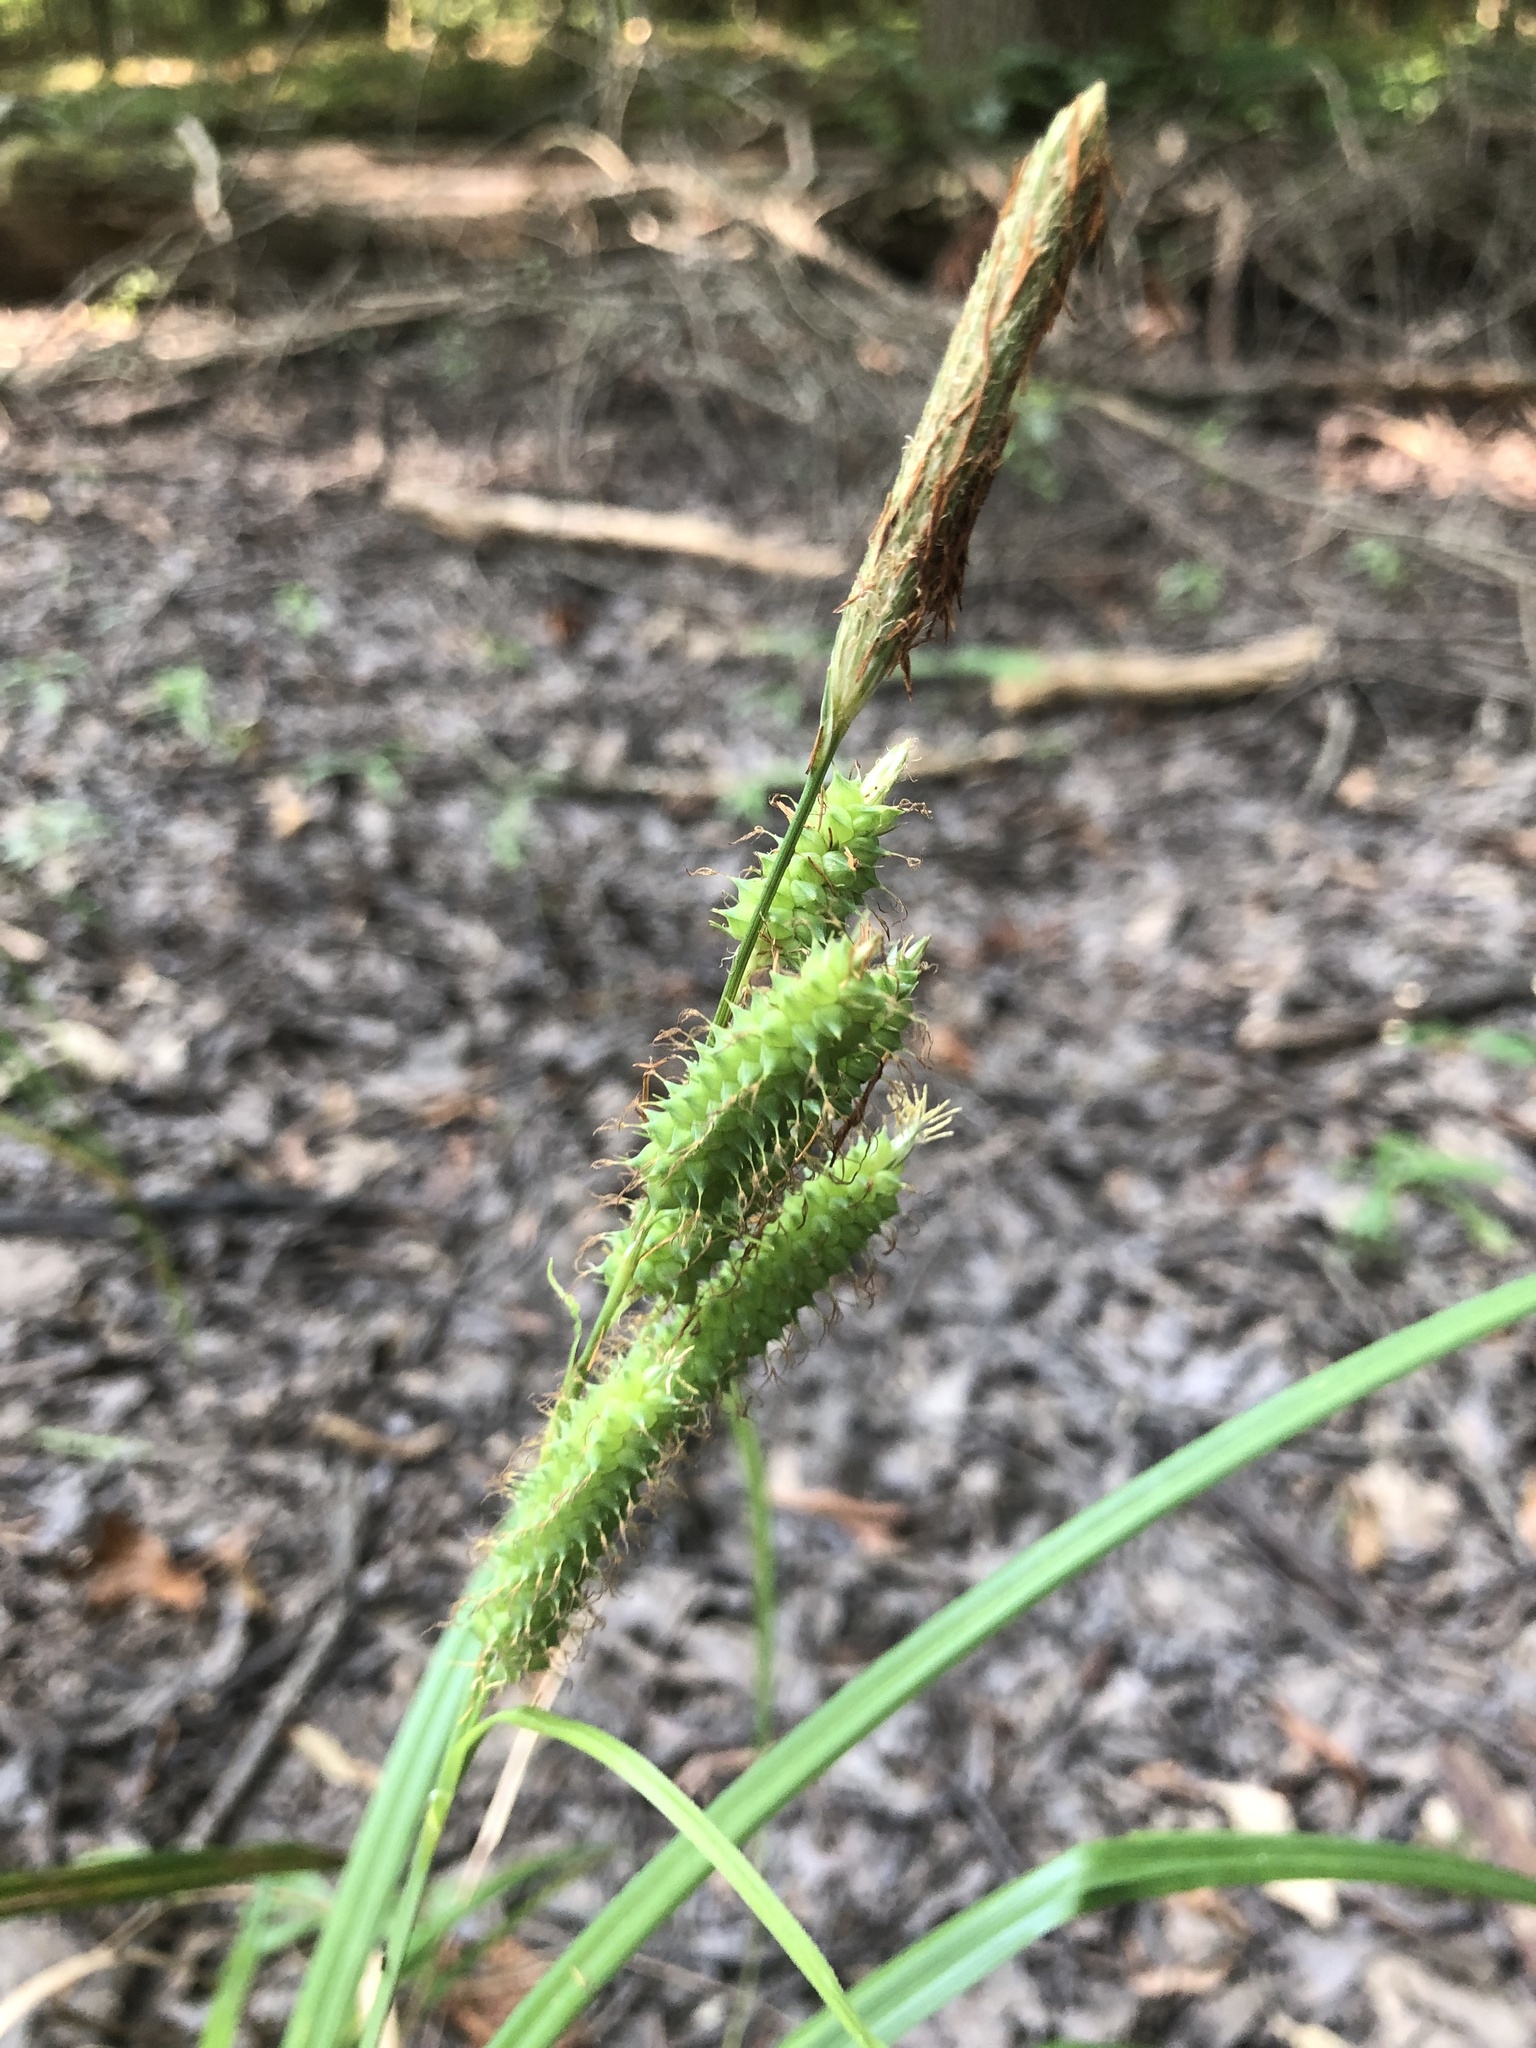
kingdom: Plantae
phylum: Tracheophyta
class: Liliopsida
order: Poales
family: Cyperaceae
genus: Carex
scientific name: Carex joorii
